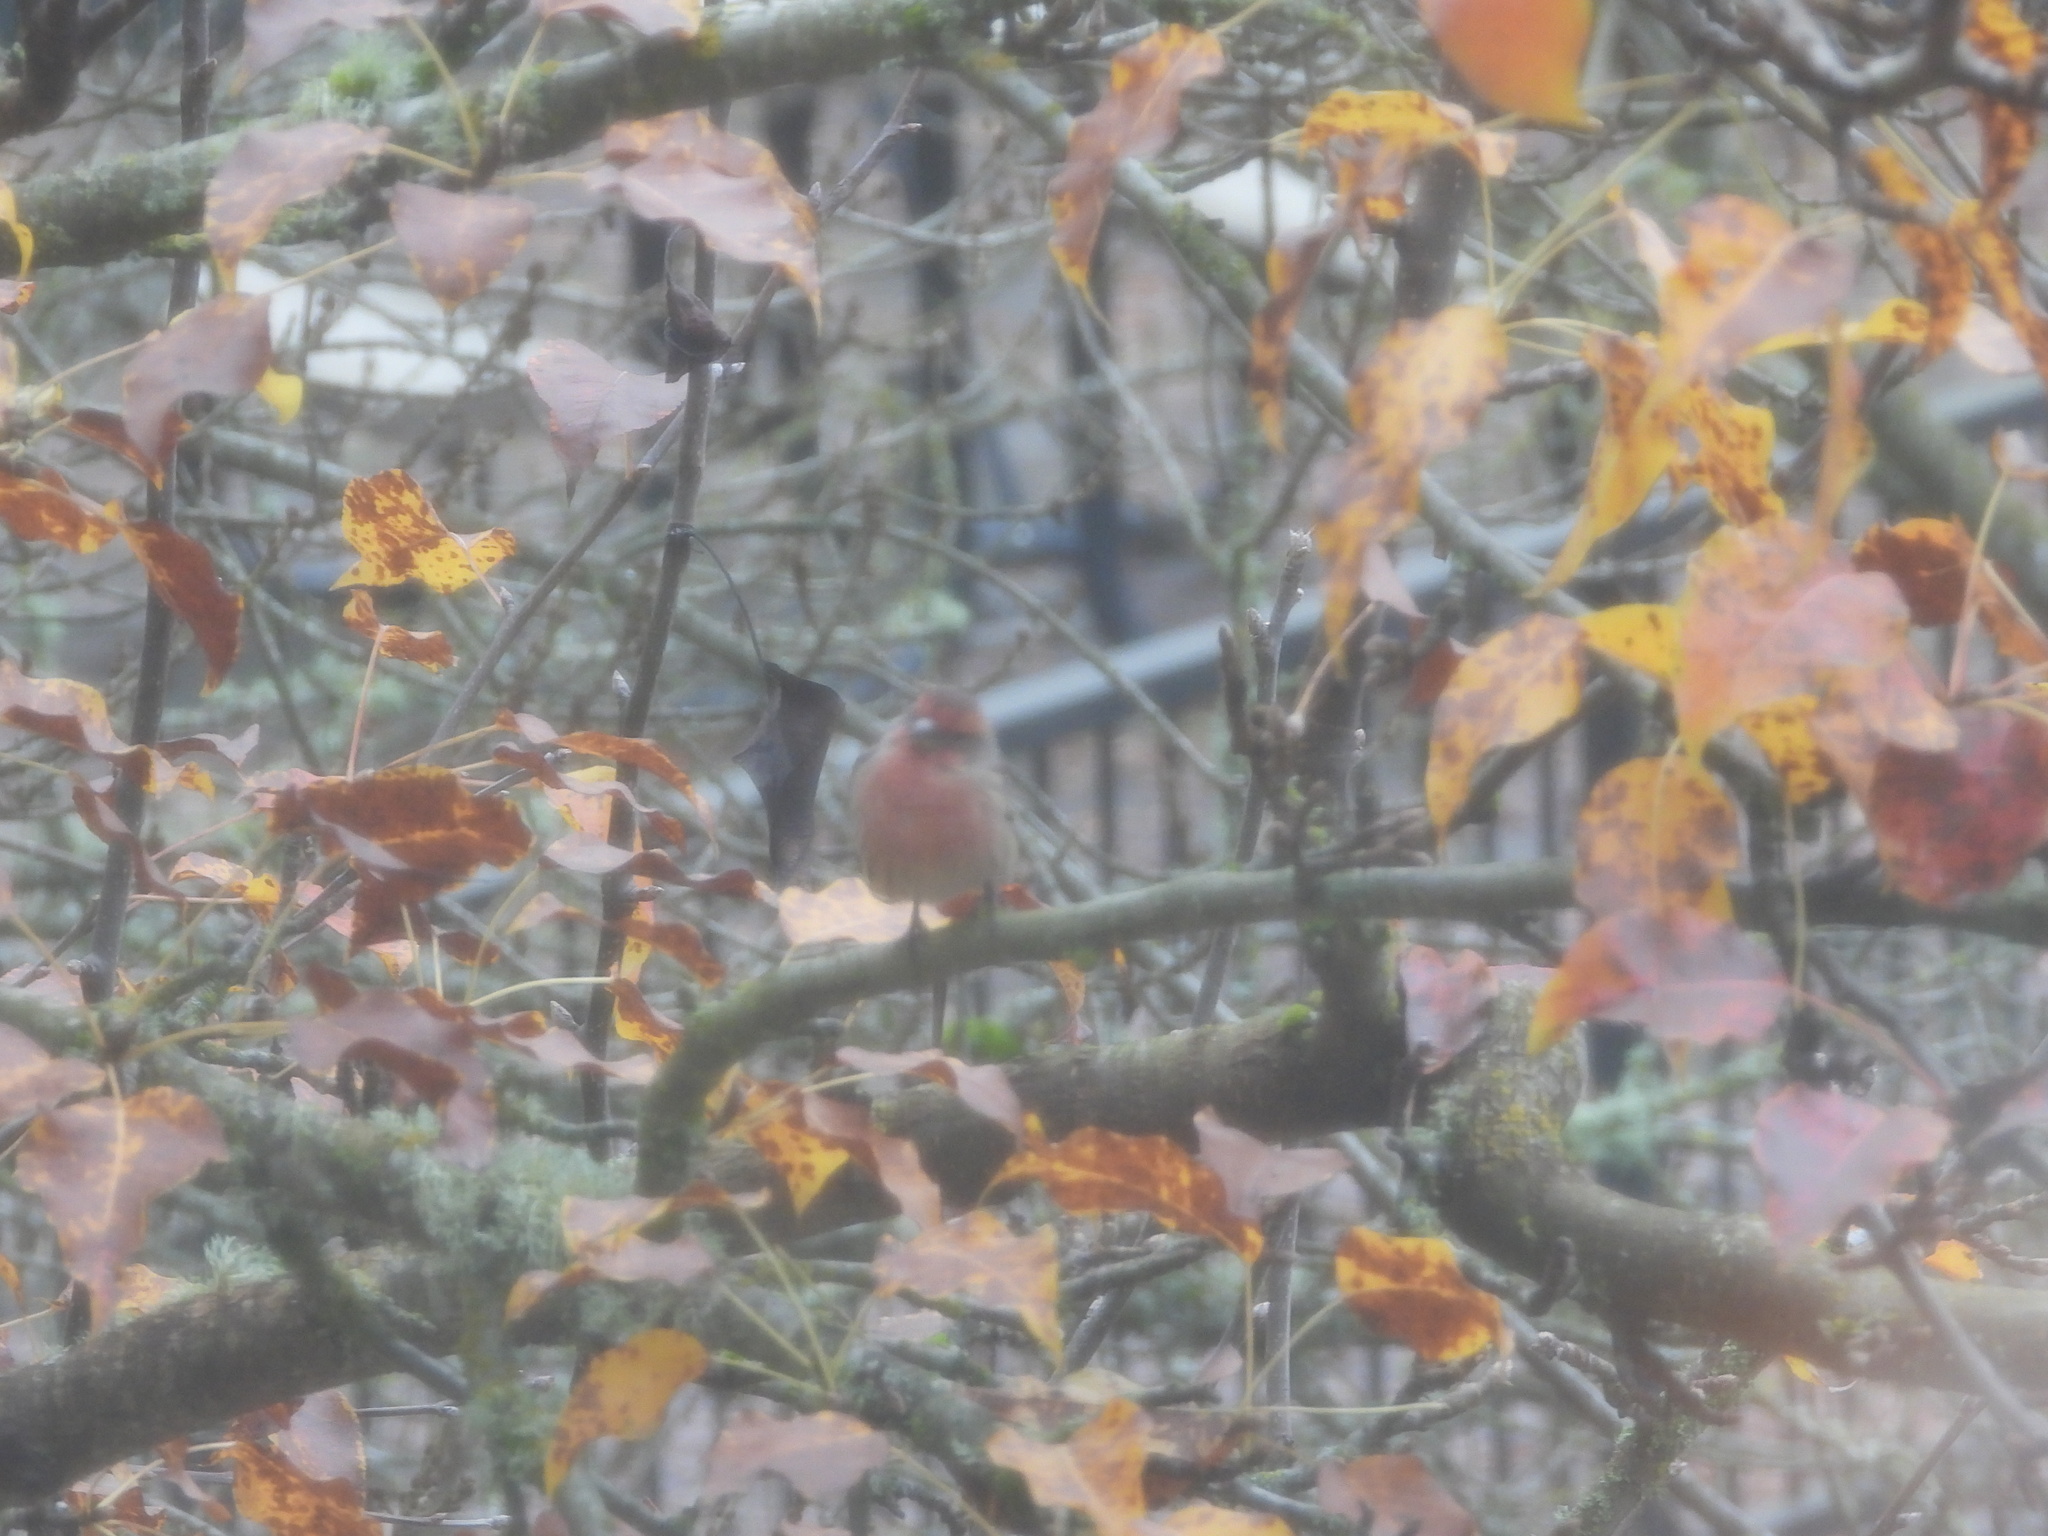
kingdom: Animalia
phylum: Chordata
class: Aves
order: Passeriformes
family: Fringillidae
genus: Haemorhous
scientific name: Haemorhous mexicanus
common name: House finch
